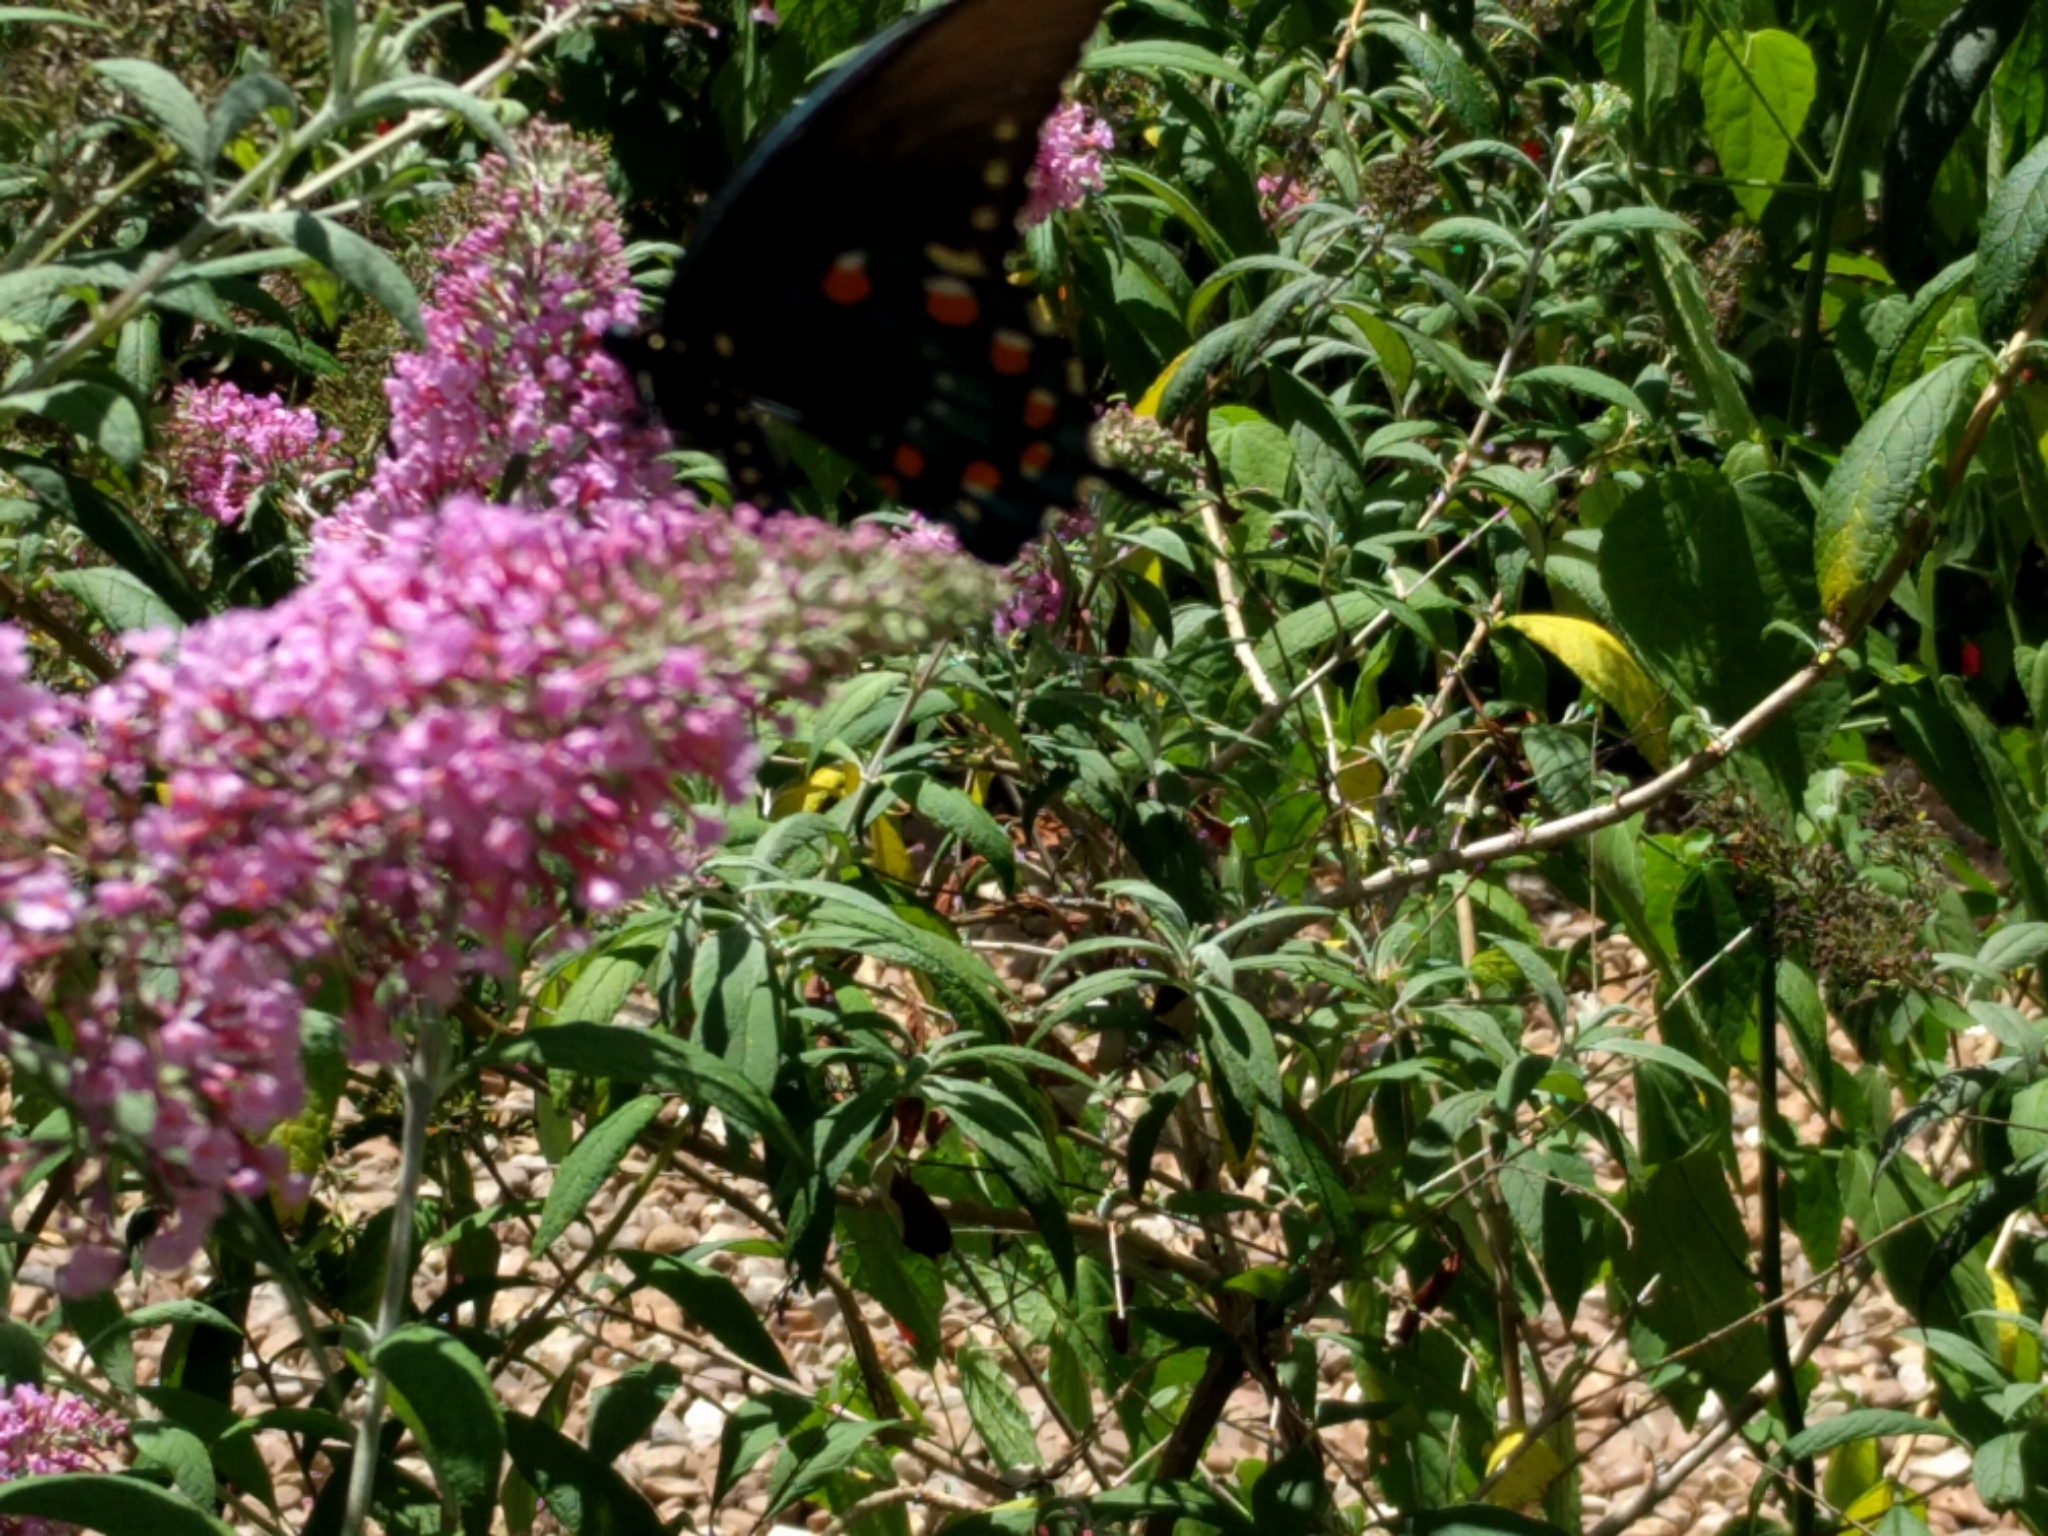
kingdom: Animalia
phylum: Arthropoda
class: Insecta
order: Lepidoptera
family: Papilionidae
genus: Battus
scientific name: Battus philenor
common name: Pipevine swallowtail
